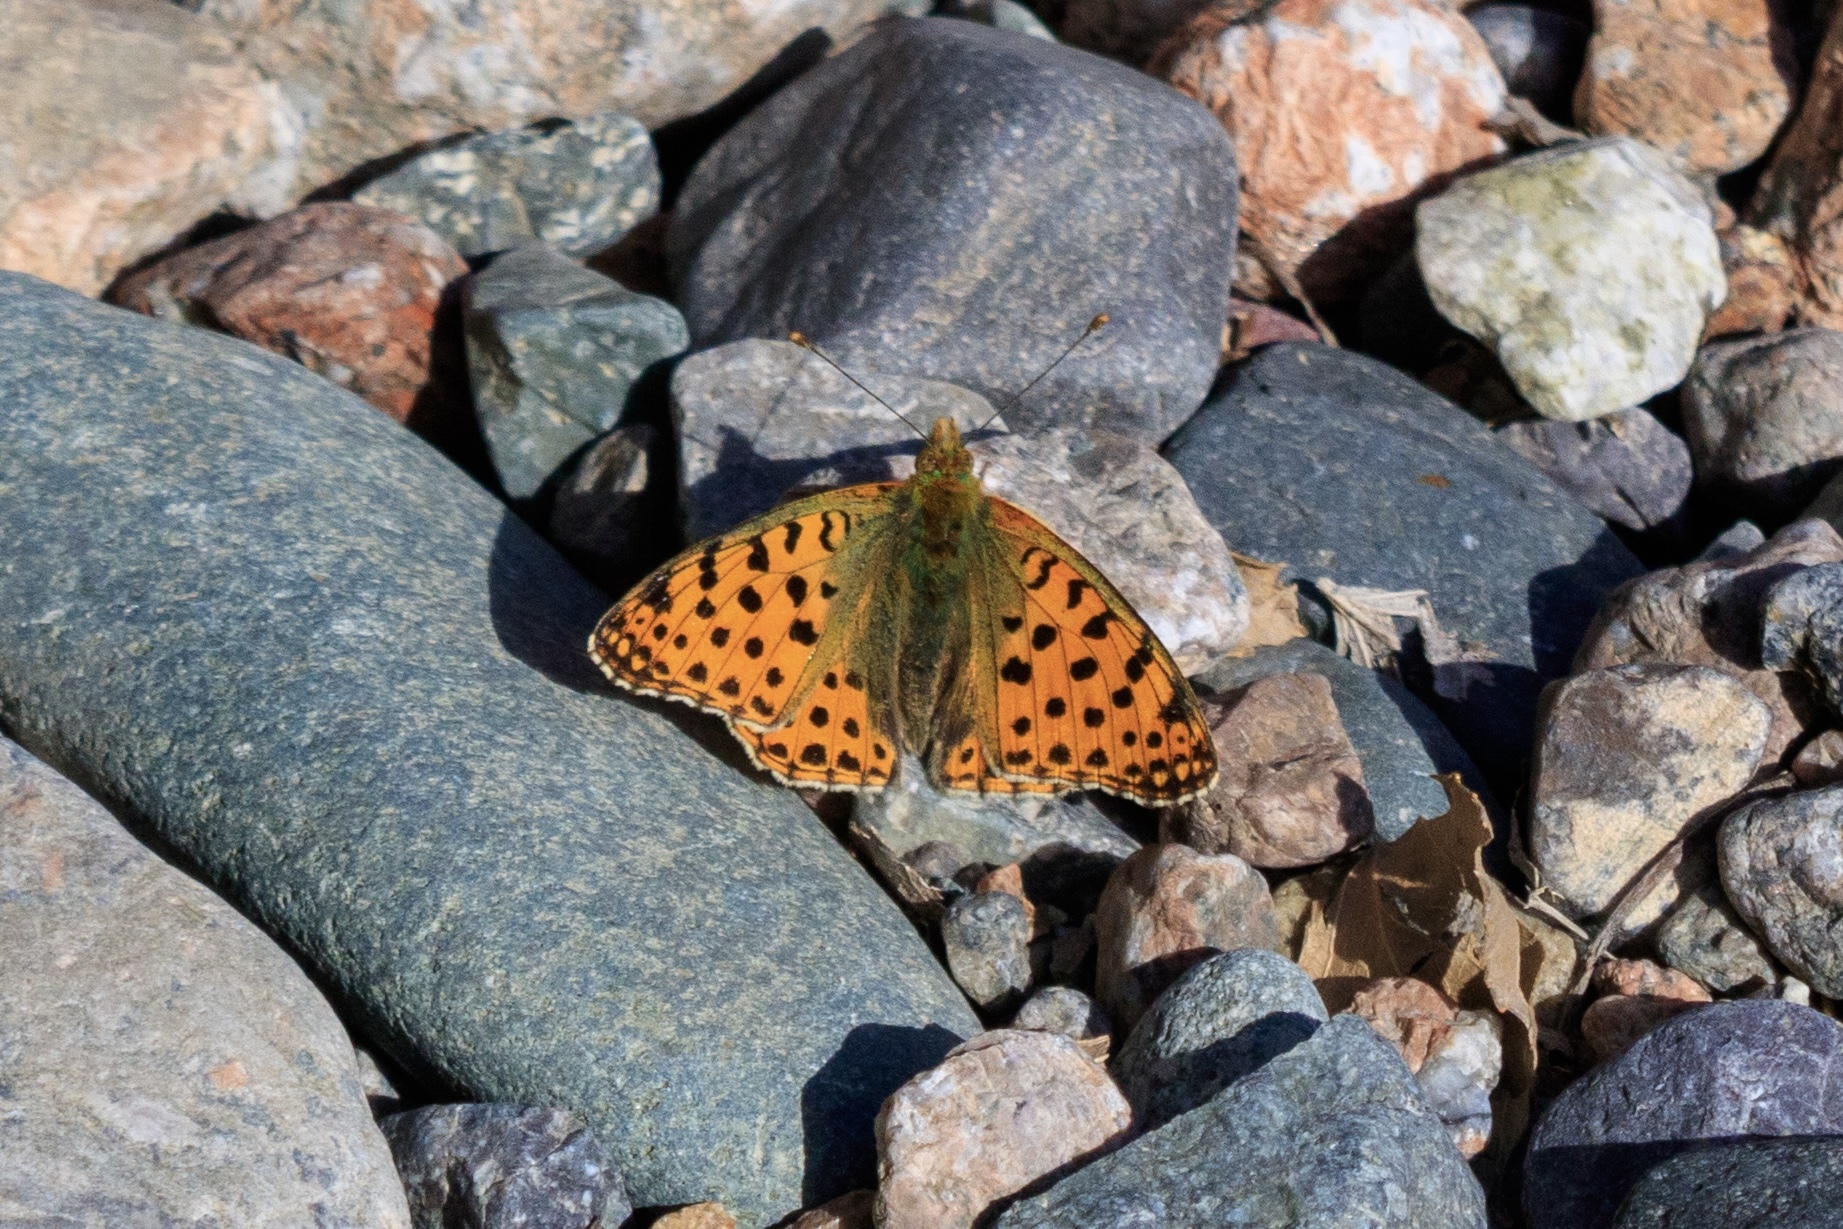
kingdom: Animalia
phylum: Arthropoda
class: Insecta
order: Lepidoptera
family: Nymphalidae
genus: Issoria
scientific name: Issoria lathonia
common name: Queen of spain fritillary
